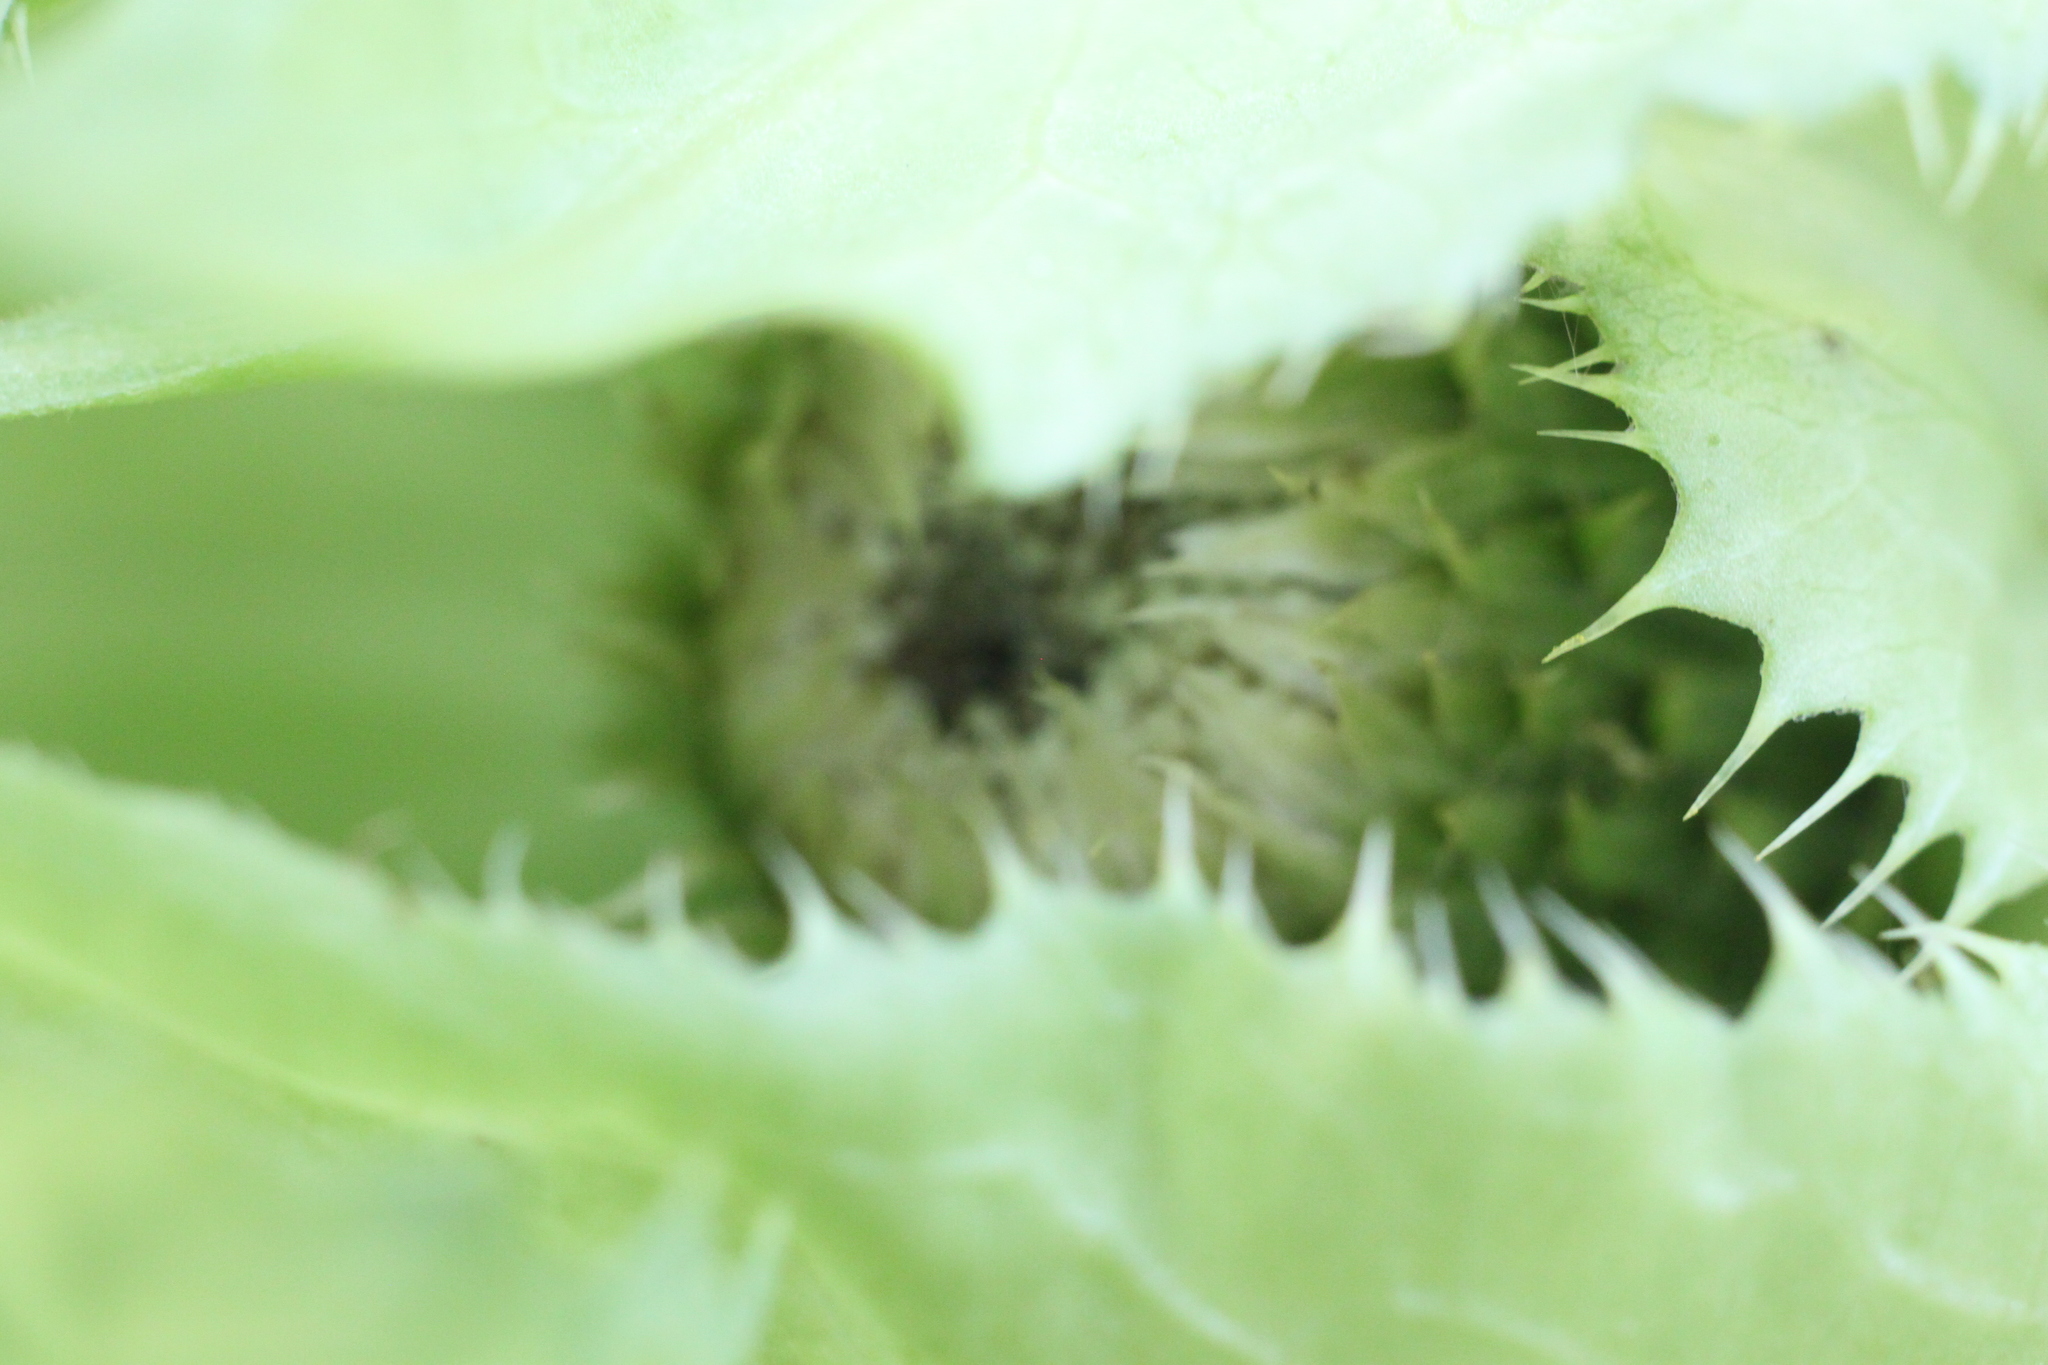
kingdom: Plantae
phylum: Tracheophyta
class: Magnoliopsida
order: Asterales
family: Asteraceae
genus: Cirsium
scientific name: Cirsium oleraceum
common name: Cabbage thistle
